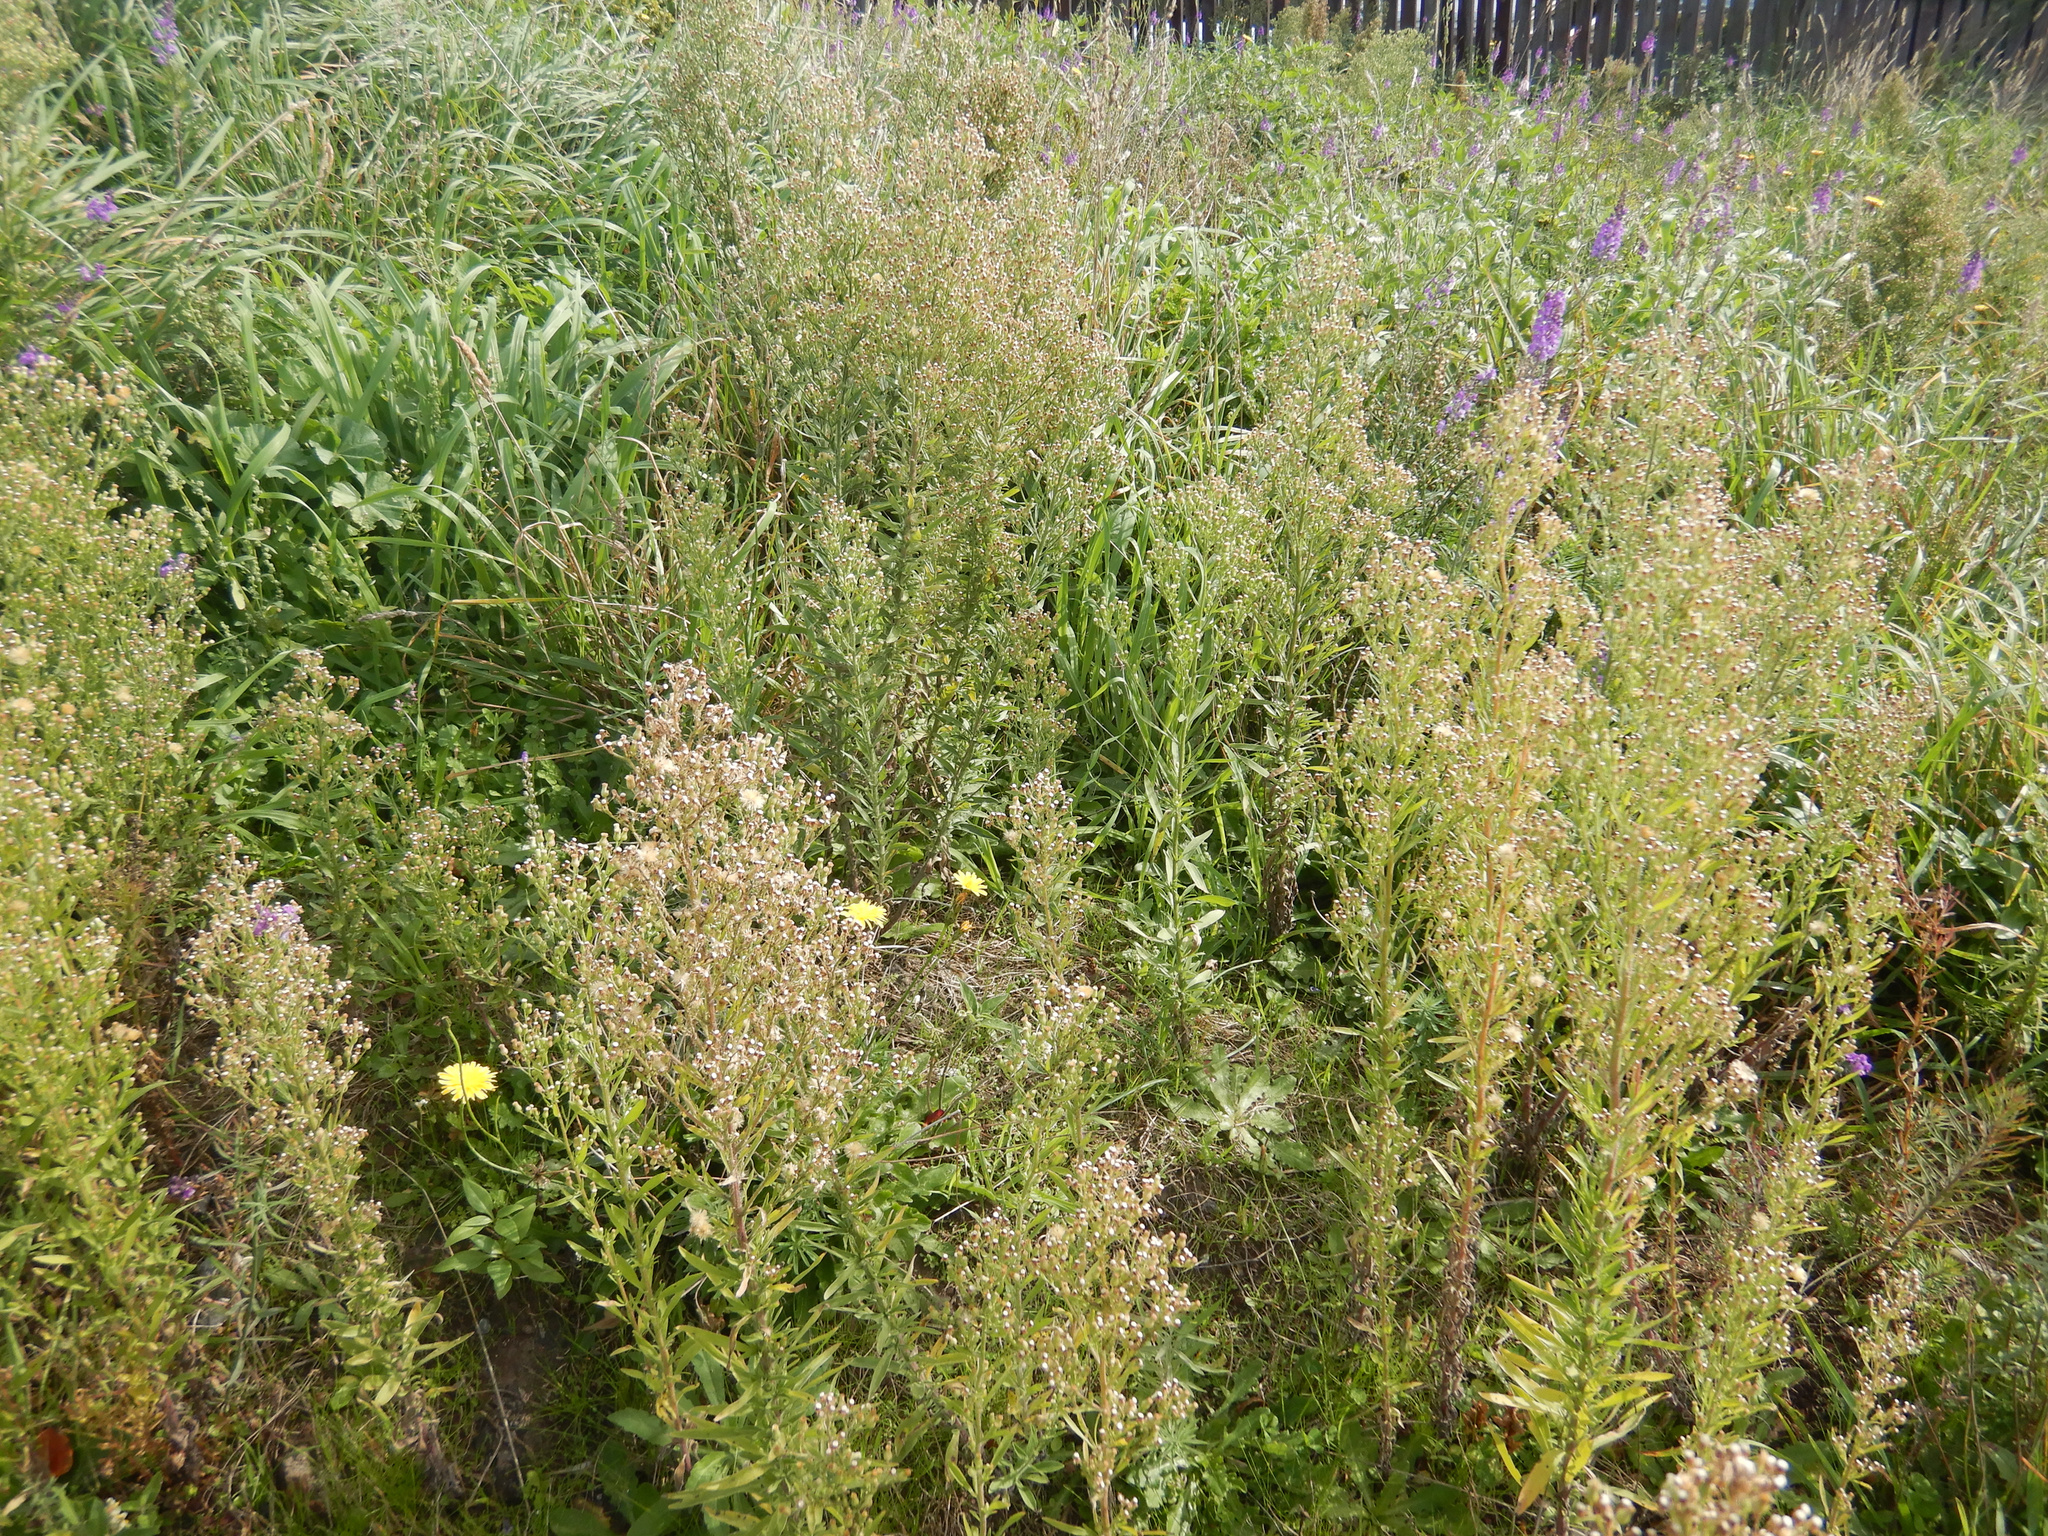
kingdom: Plantae
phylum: Tracheophyta
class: Magnoliopsida
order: Asterales
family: Asteraceae
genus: Erigeron
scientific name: Erigeron sumatrensis
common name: Daisy
